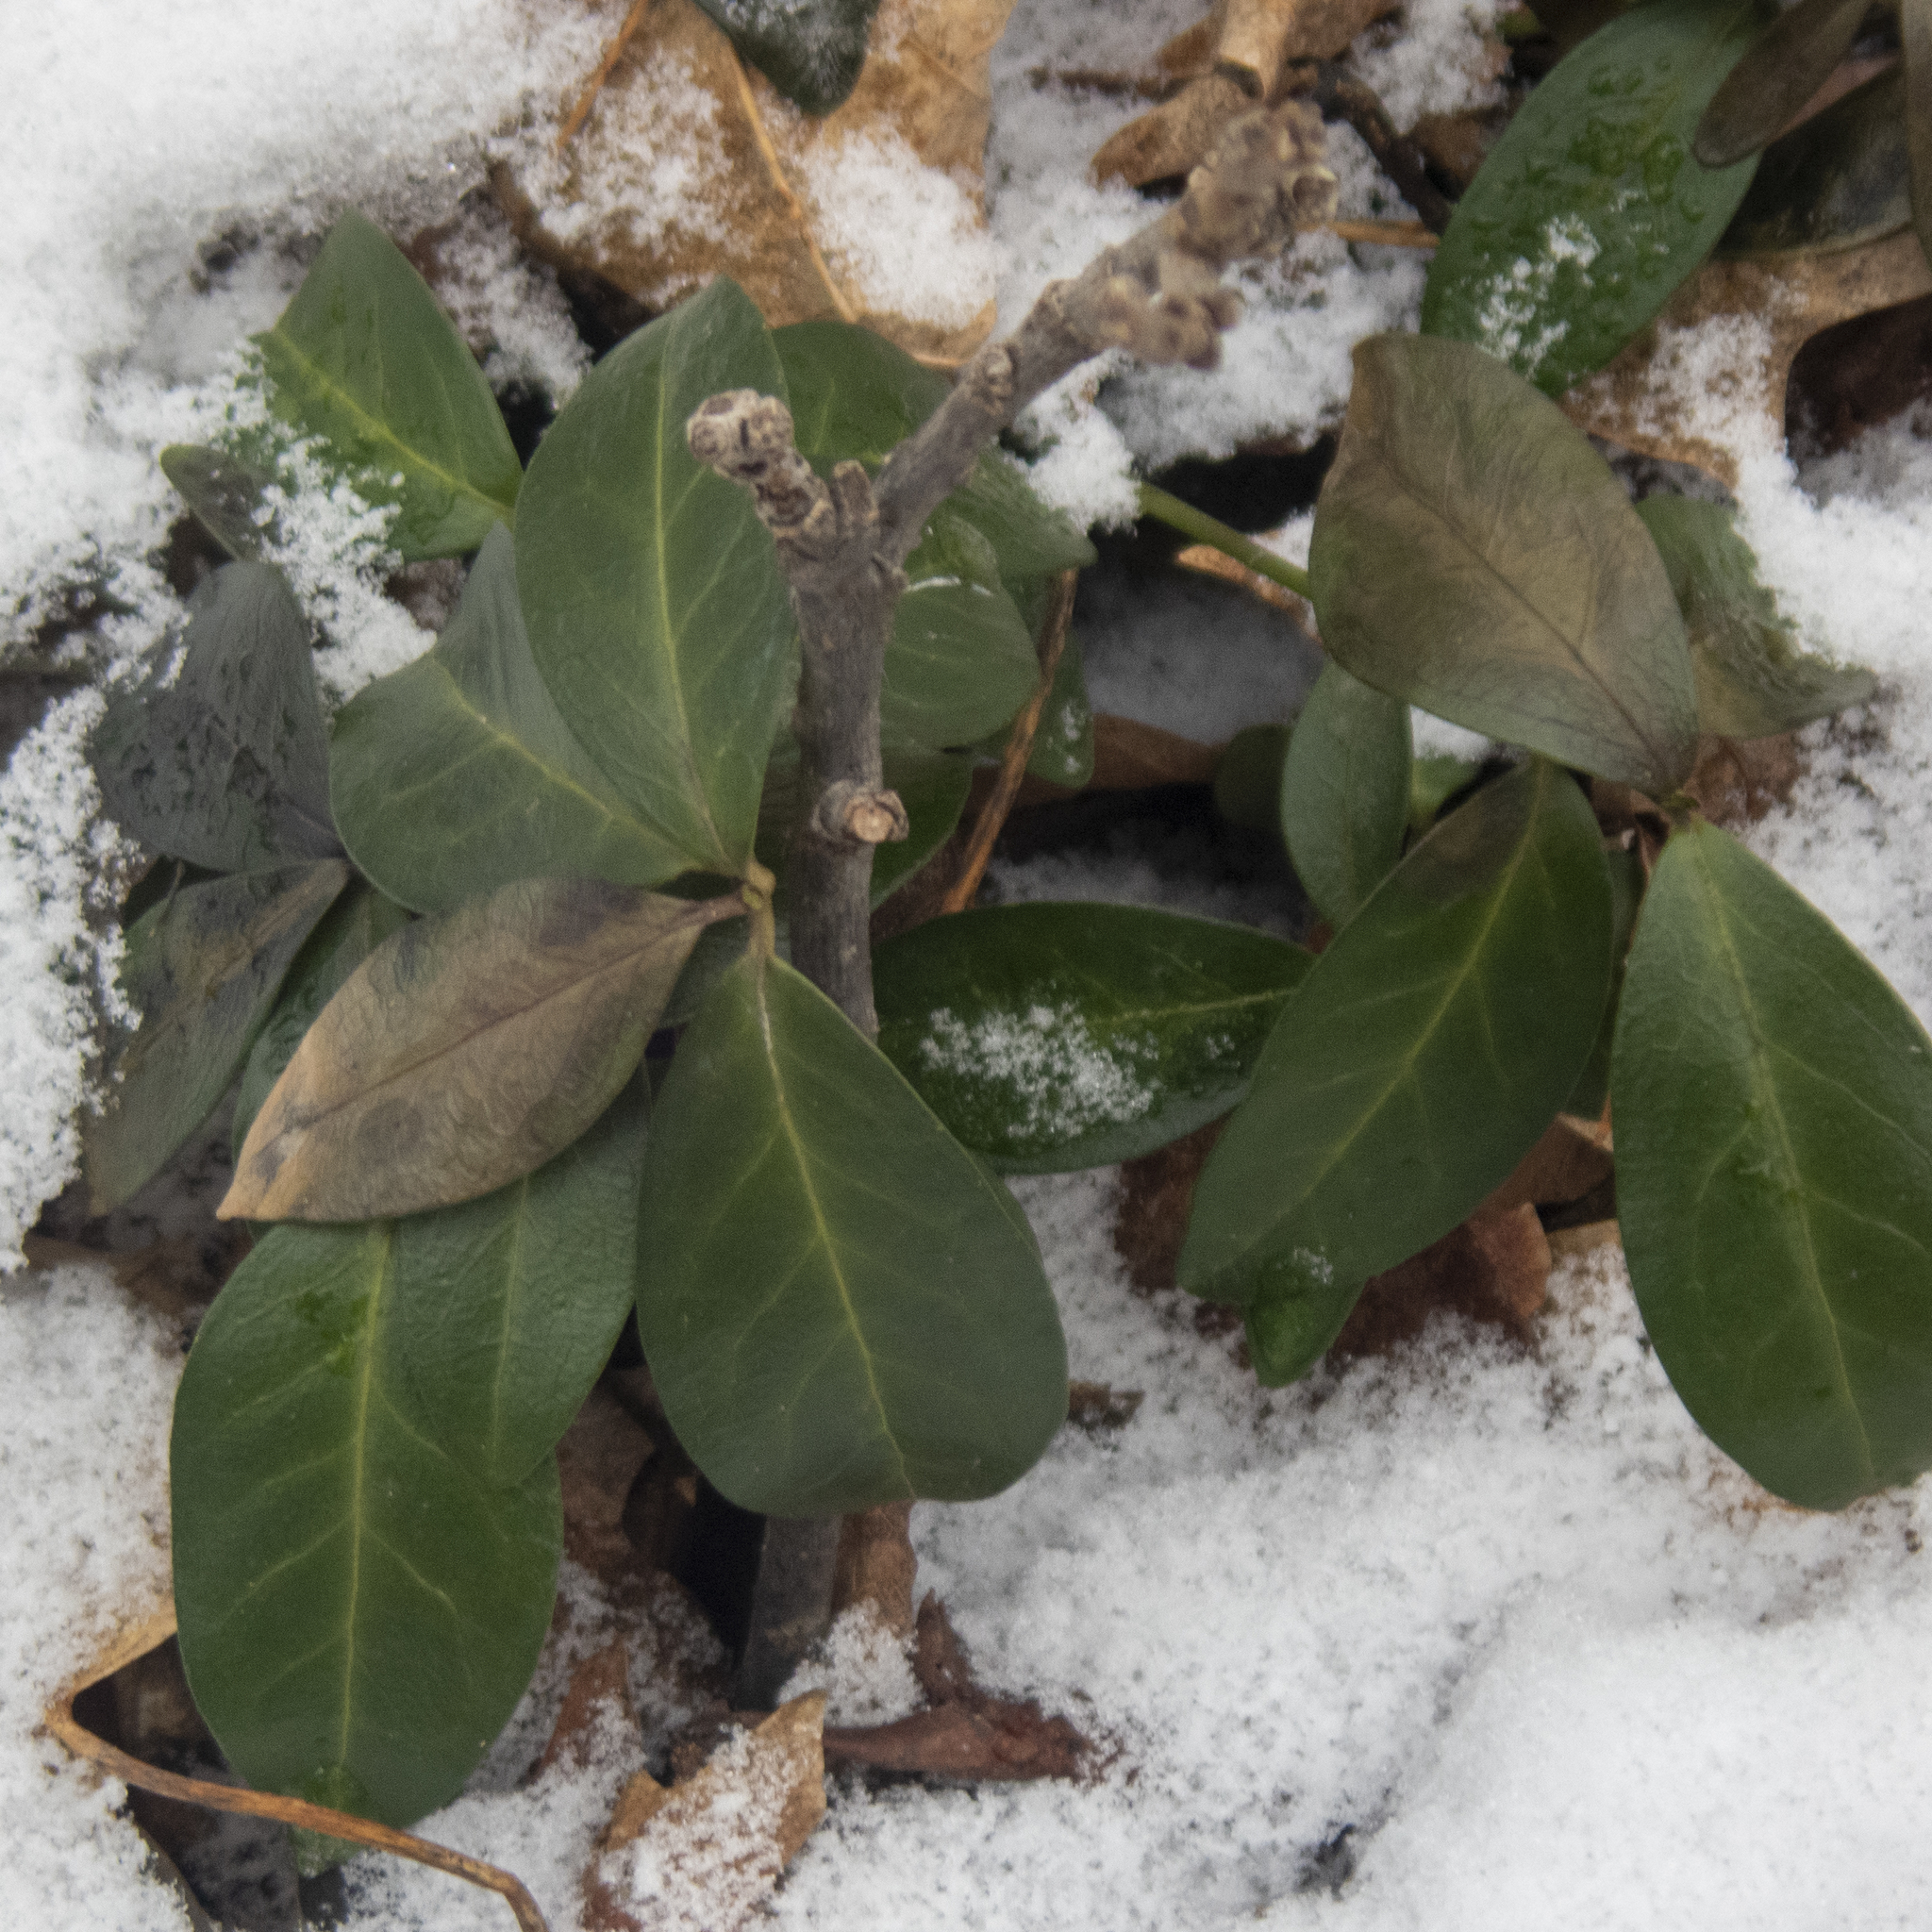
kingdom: Plantae
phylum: Tracheophyta
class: Magnoliopsida
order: Gentianales
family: Apocynaceae
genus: Vinca
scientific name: Vinca minor
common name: Lesser periwinkle
